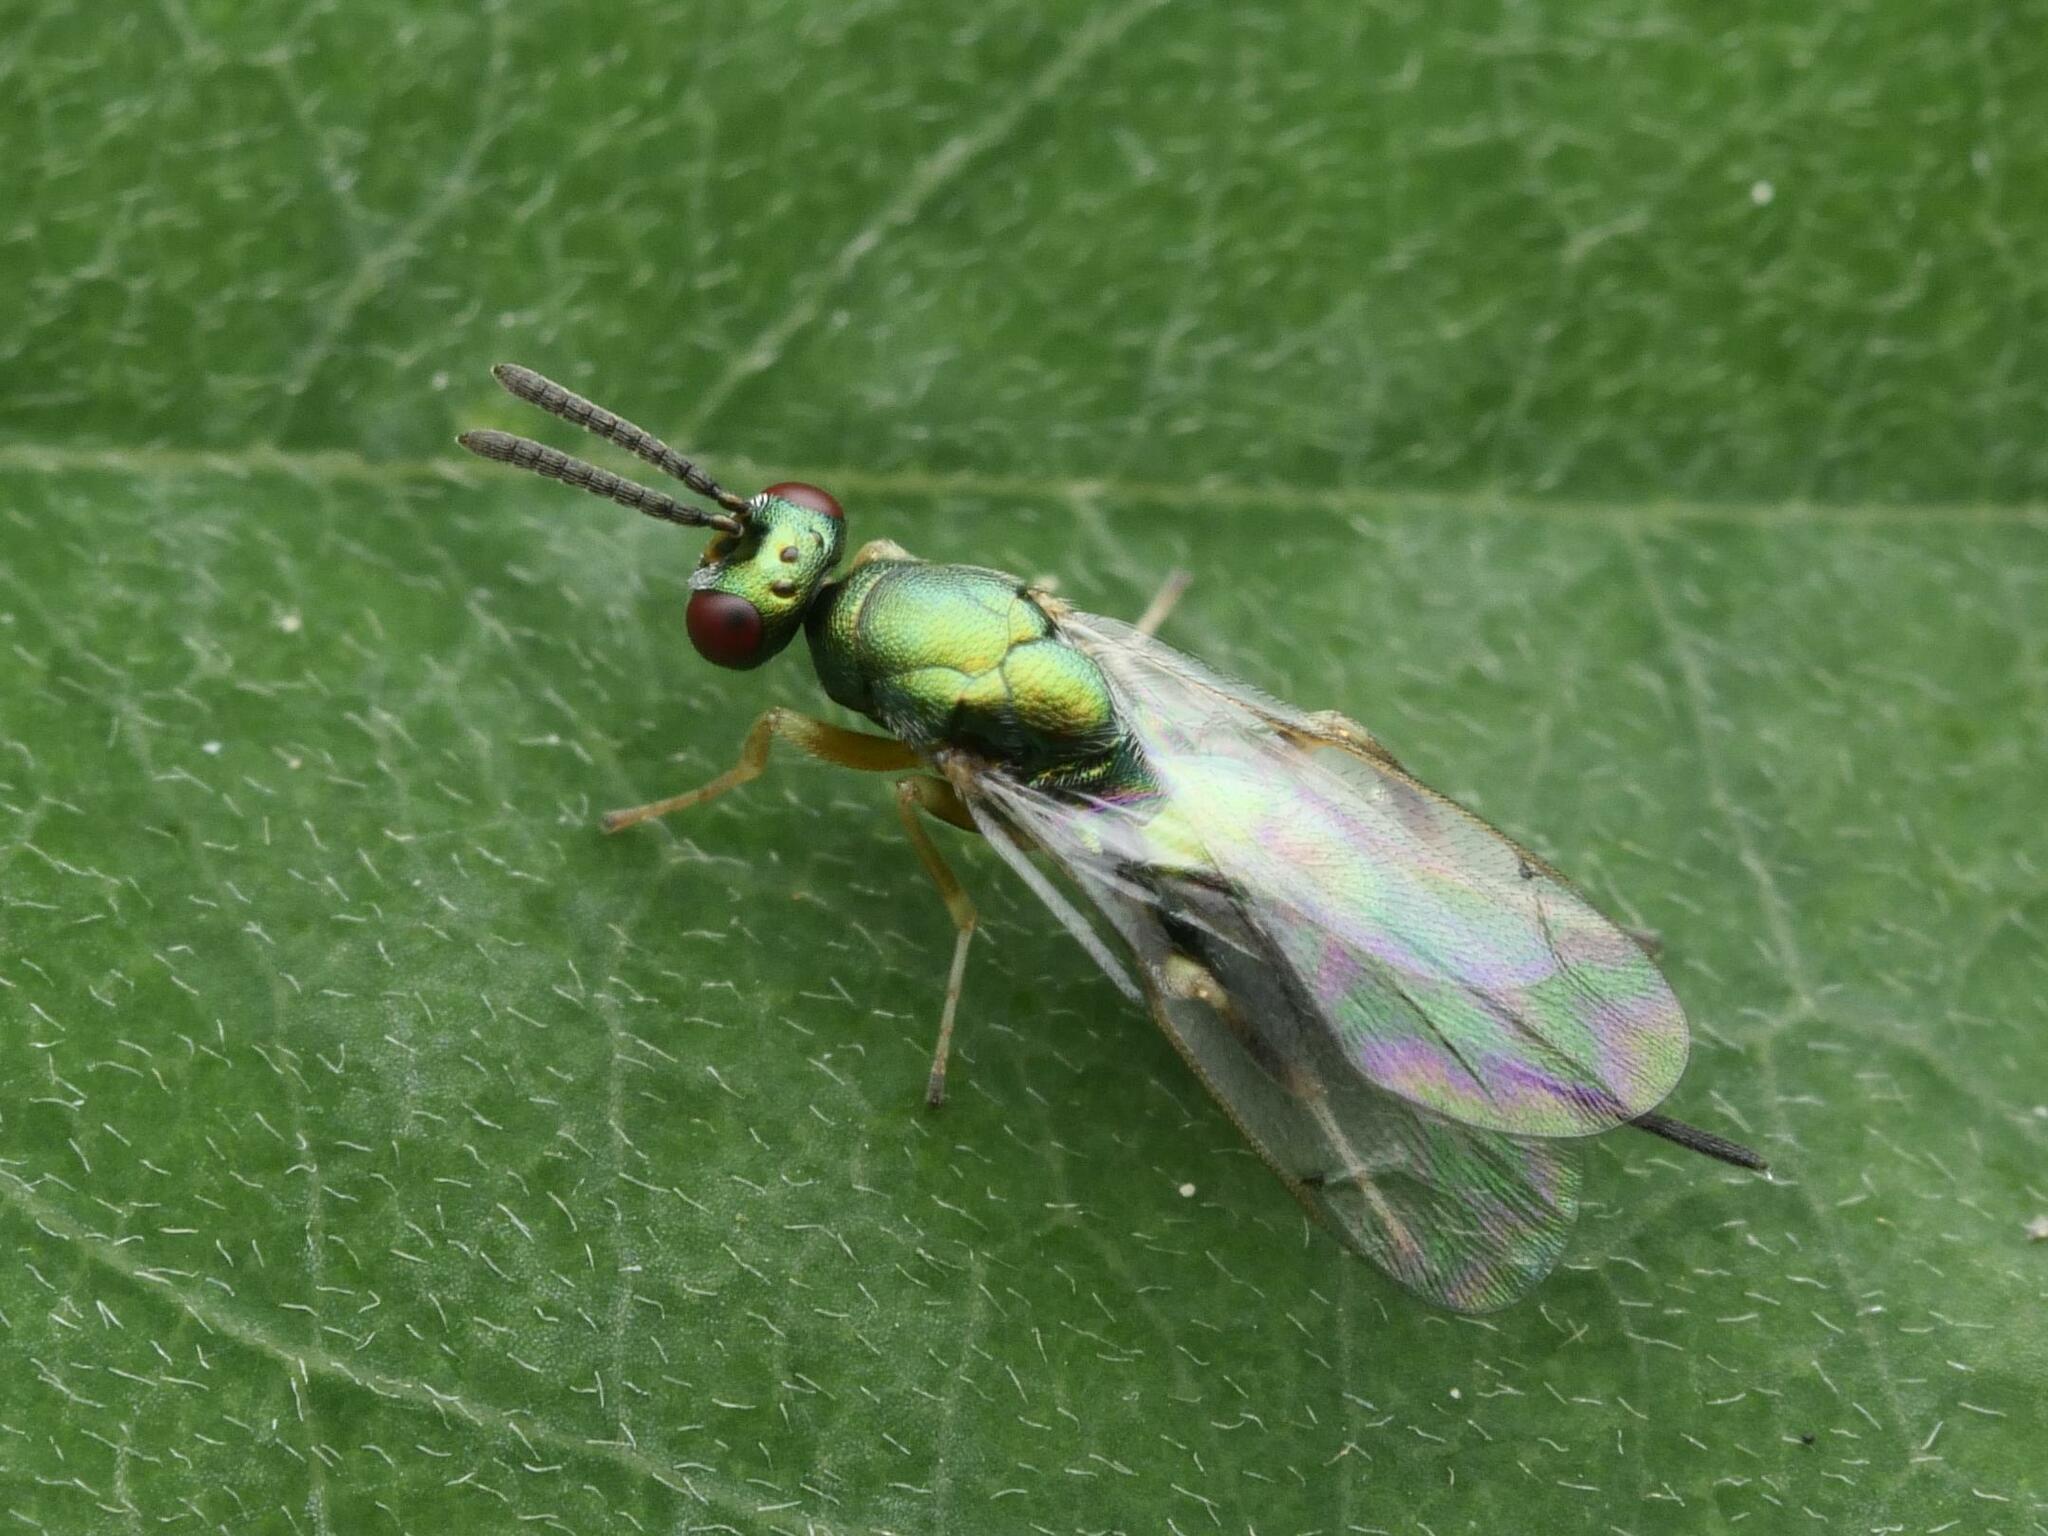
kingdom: Animalia
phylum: Arthropoda
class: Insecta
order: Hymenoptera
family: Torymidae
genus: Torymus
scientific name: Torymus flavipes
